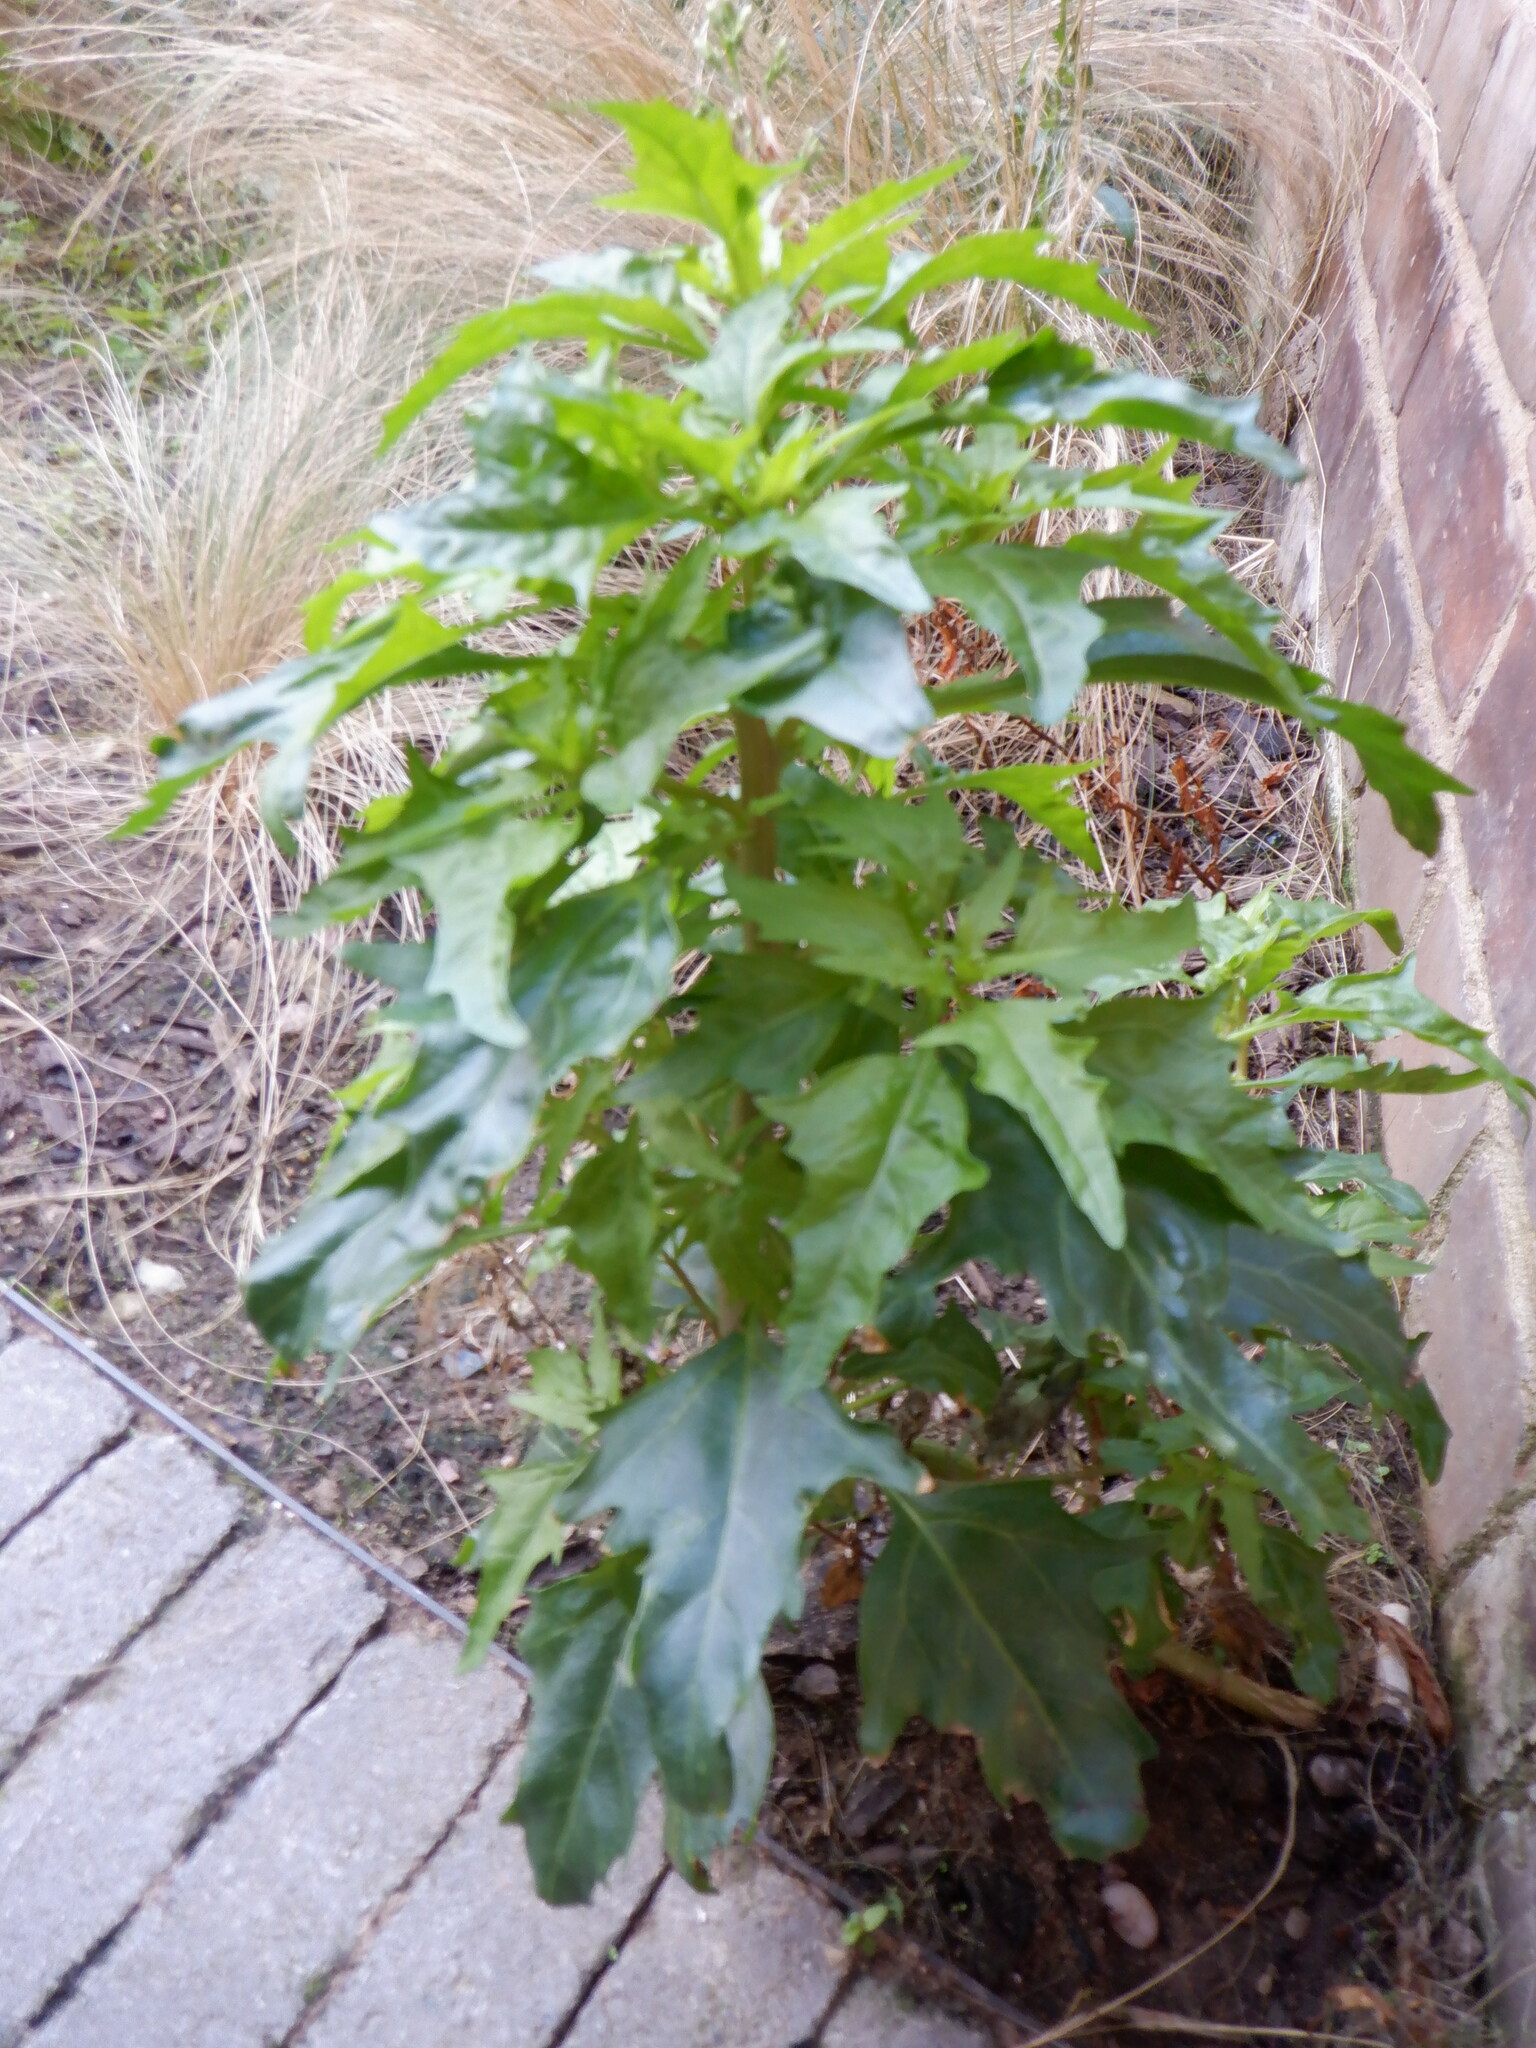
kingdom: Plantae
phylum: Tracheophyta
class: Magnoliopsida
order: Caryophyllales
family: Amaranthaceae
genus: Oxybasis
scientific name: Oxybasis rubra
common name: Red goosefoot
